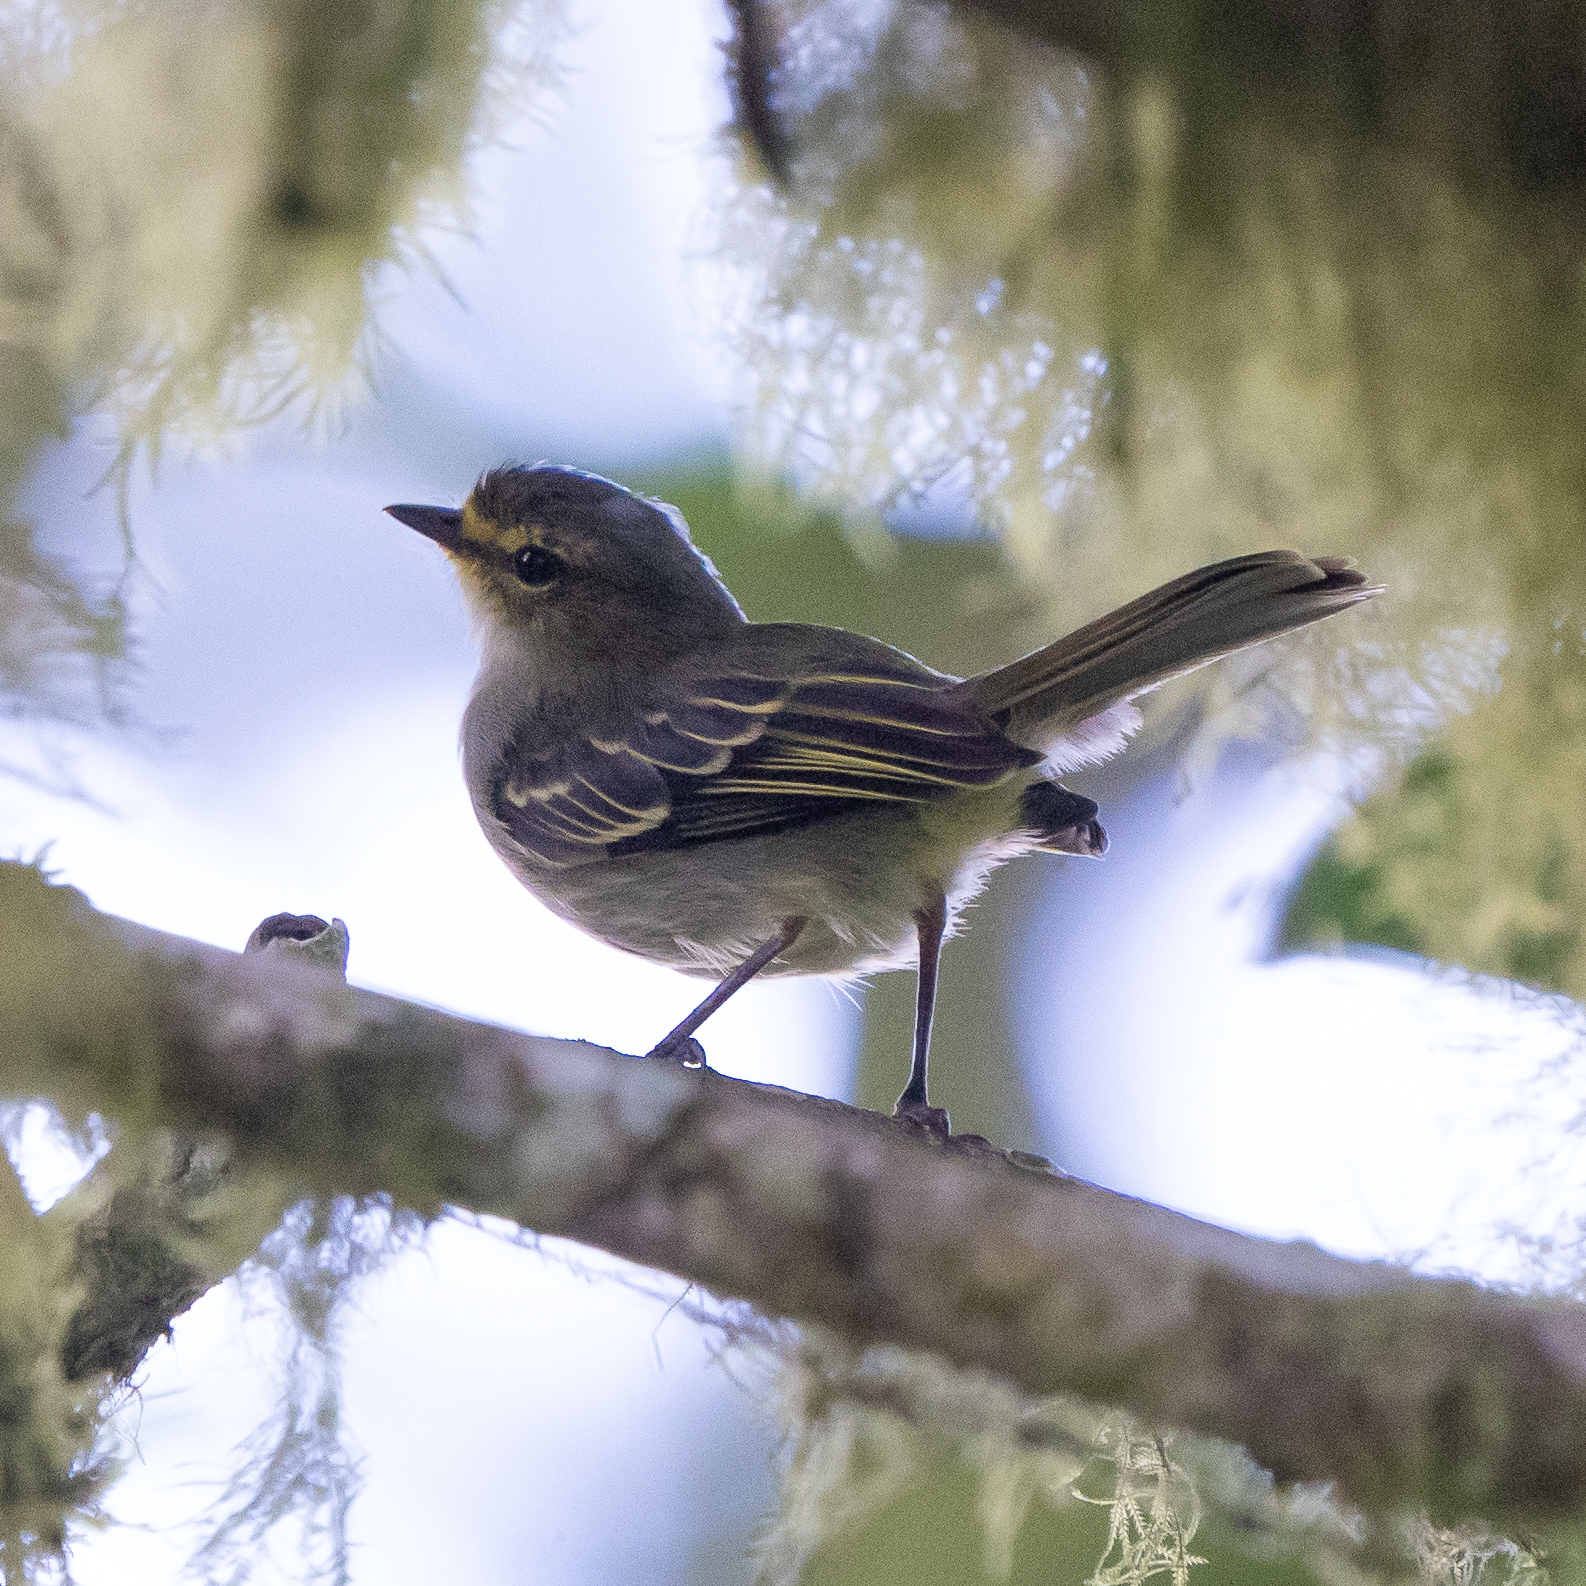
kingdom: Animalia
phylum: Chordata
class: Aves
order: Passeriformes
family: Tyrannidae
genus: Zimmerius
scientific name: Zimmerius chrysops
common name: Golden-faced tyrannulet
